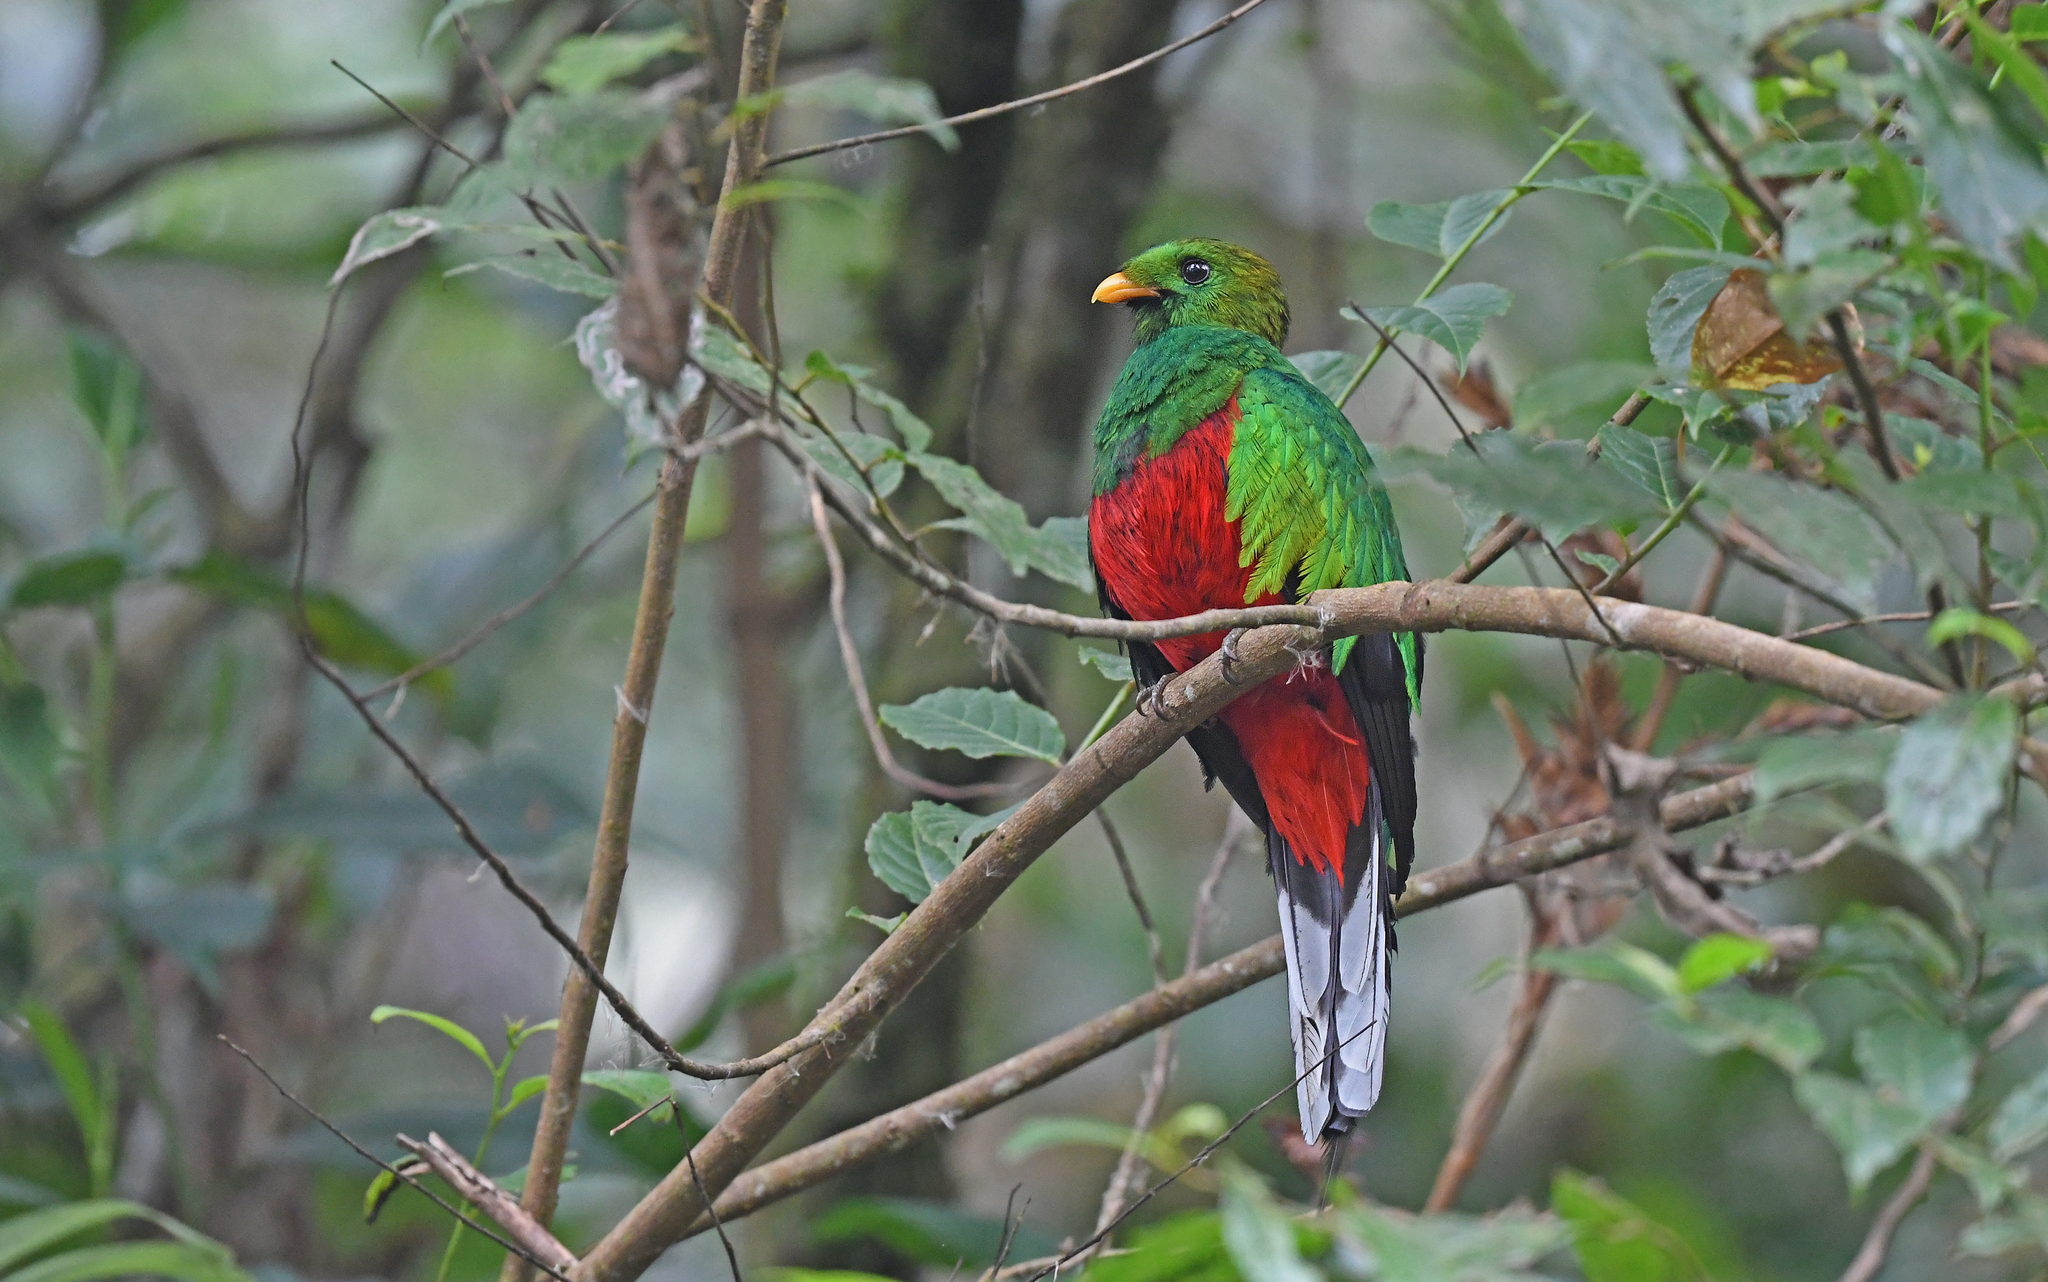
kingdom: Animalia
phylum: Chordata
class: Aves
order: Trogoniformes
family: Trogonidae
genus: Pharomachrus
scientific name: Pharomachrus fulgidus
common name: White-tipped quetzal
